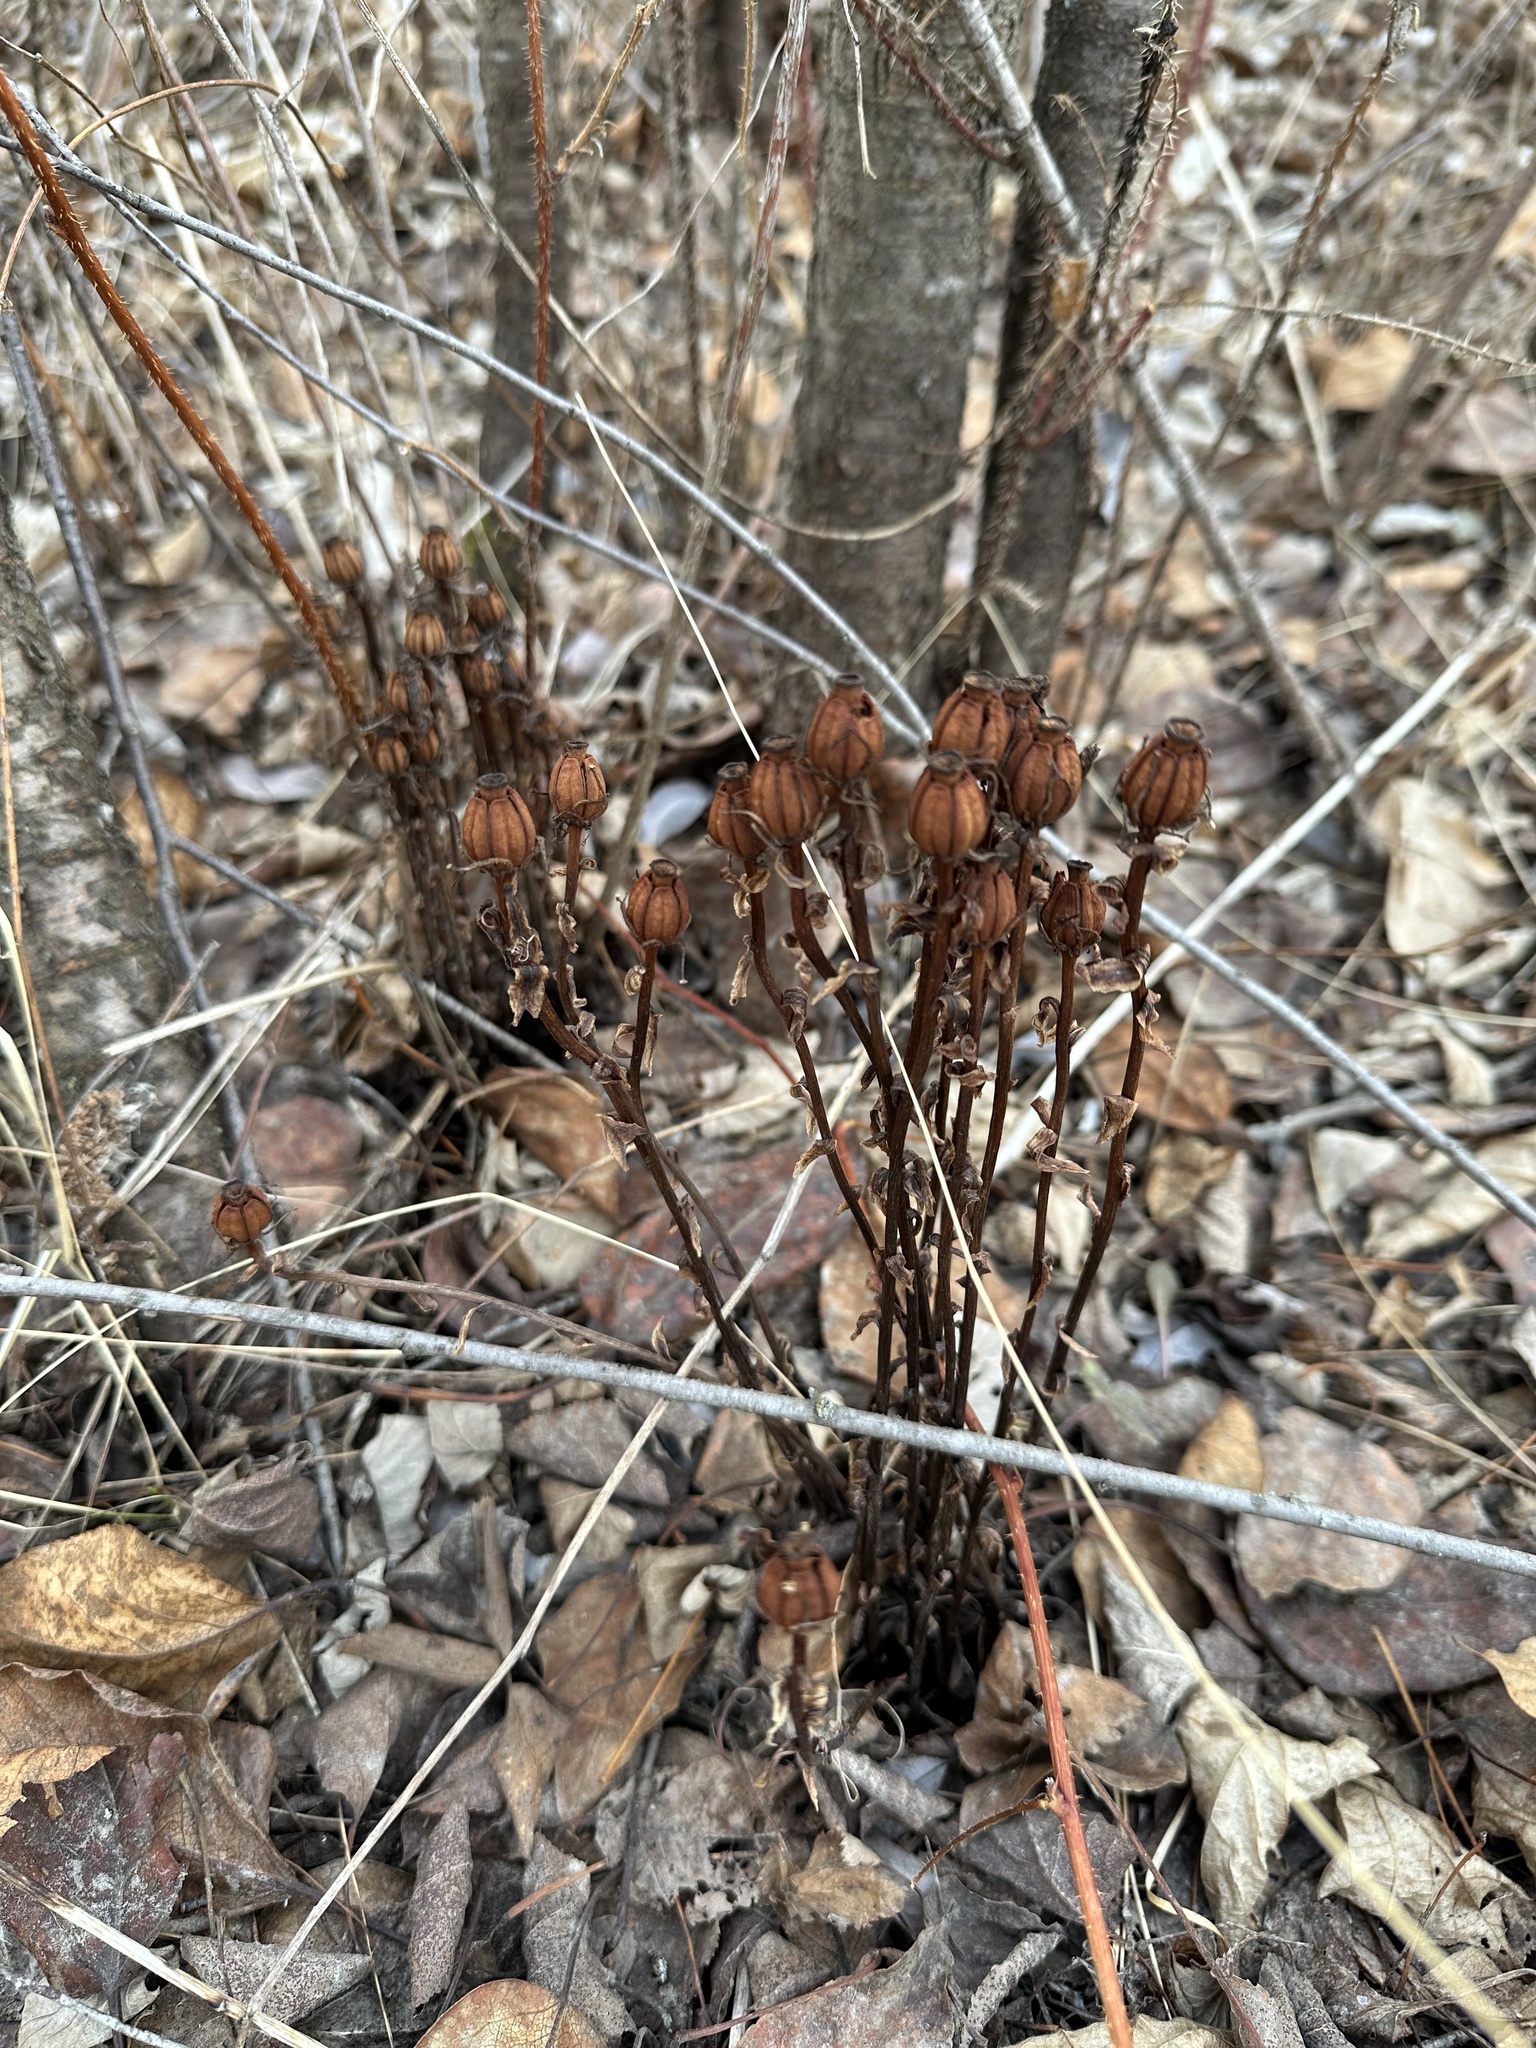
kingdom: Plantae
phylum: Tracheophyta
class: Magnoliopsida
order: Ericales
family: Ericaceae
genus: Monotropa
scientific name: Monotropa uniflora
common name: Convulsion root
